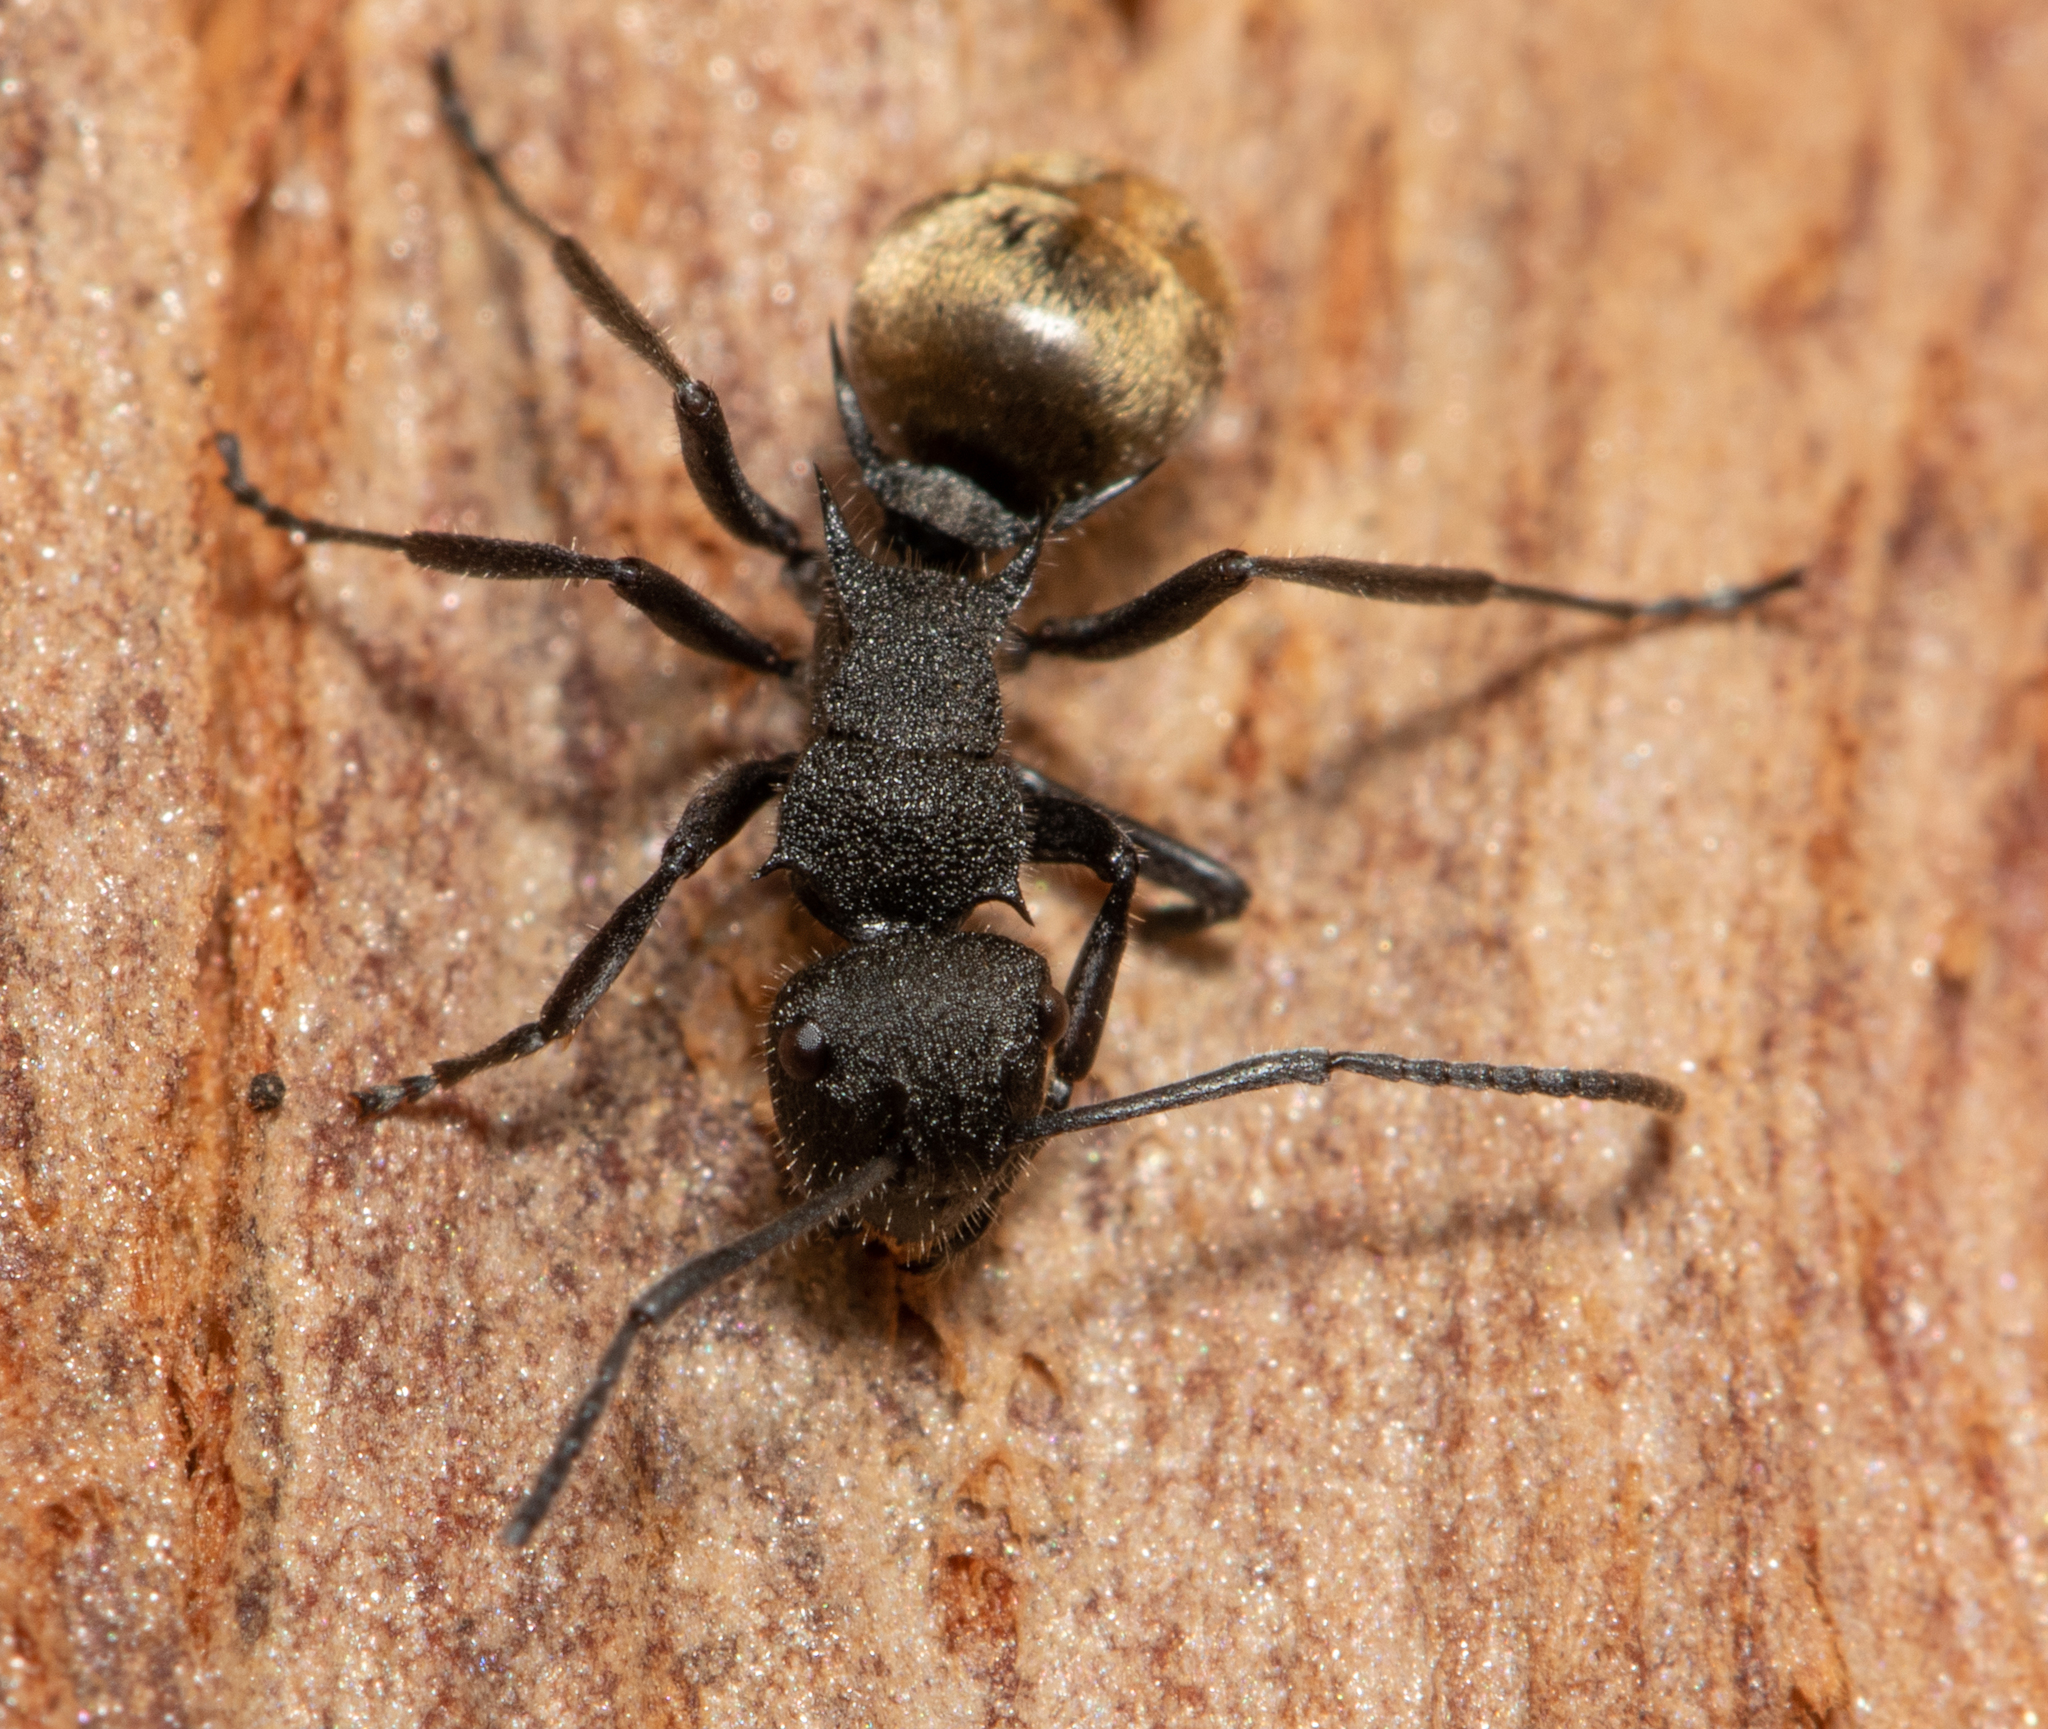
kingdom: Animalia
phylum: Arthropoda
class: Insecta
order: Hymenoptera
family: Formicidae
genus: Polyrhachis
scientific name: Polyrhachis erato
